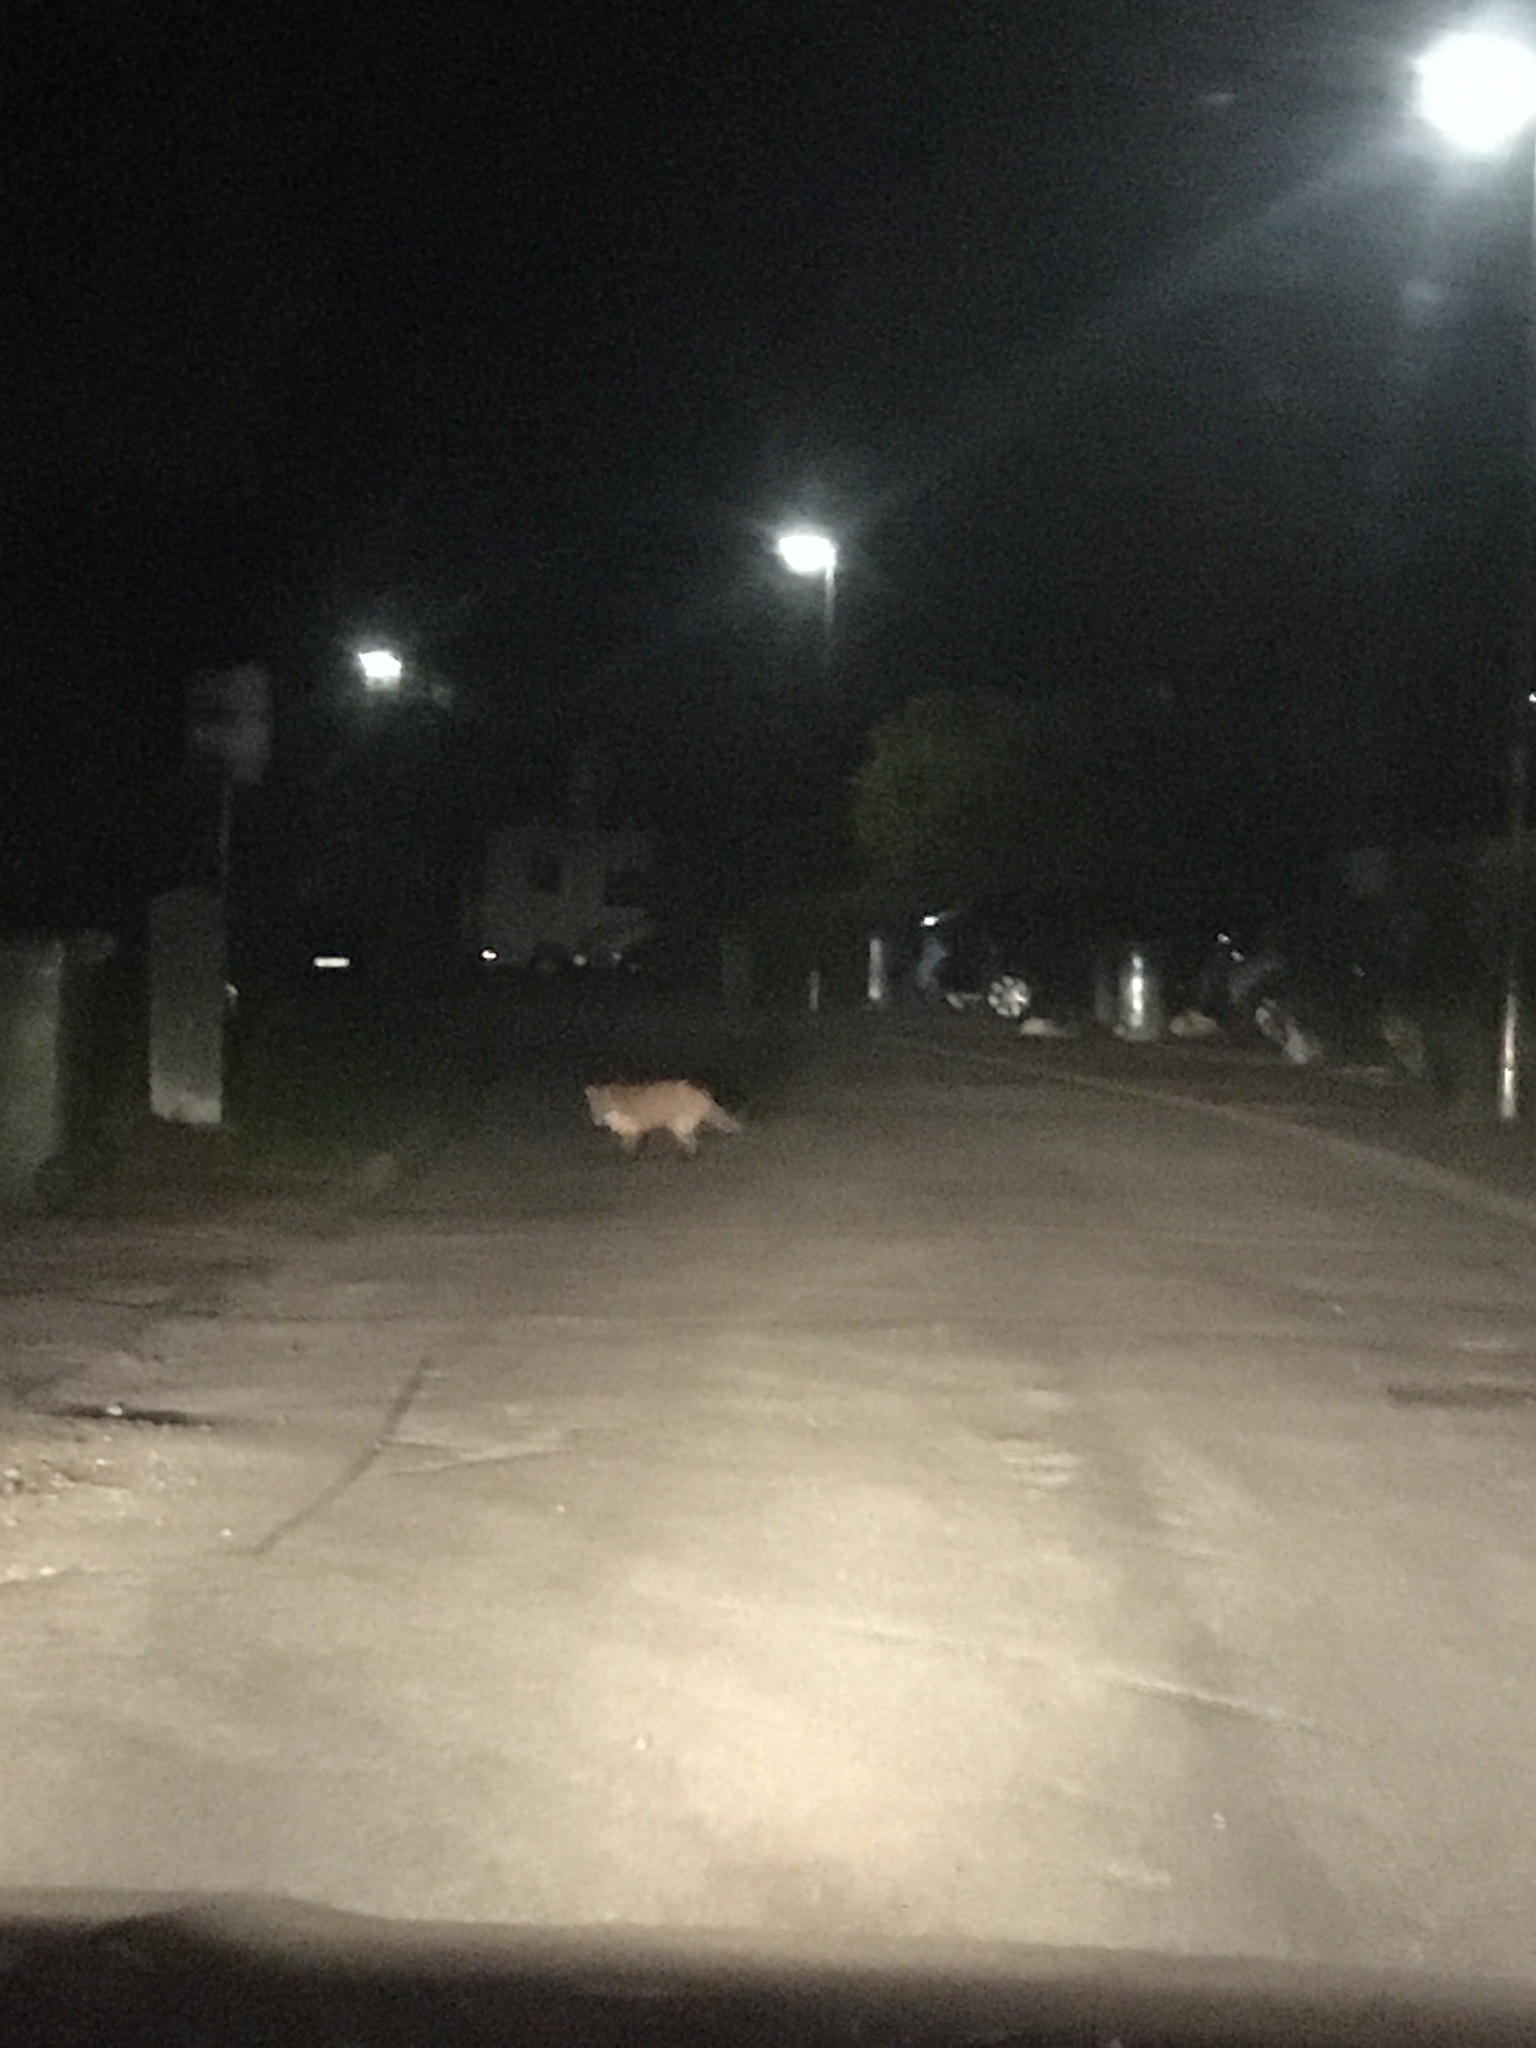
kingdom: Animalia
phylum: Chordata
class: Mammalia
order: Carnivora
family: Canidae
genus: Vulpes
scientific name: Vulpes vulpes
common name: Red fox
